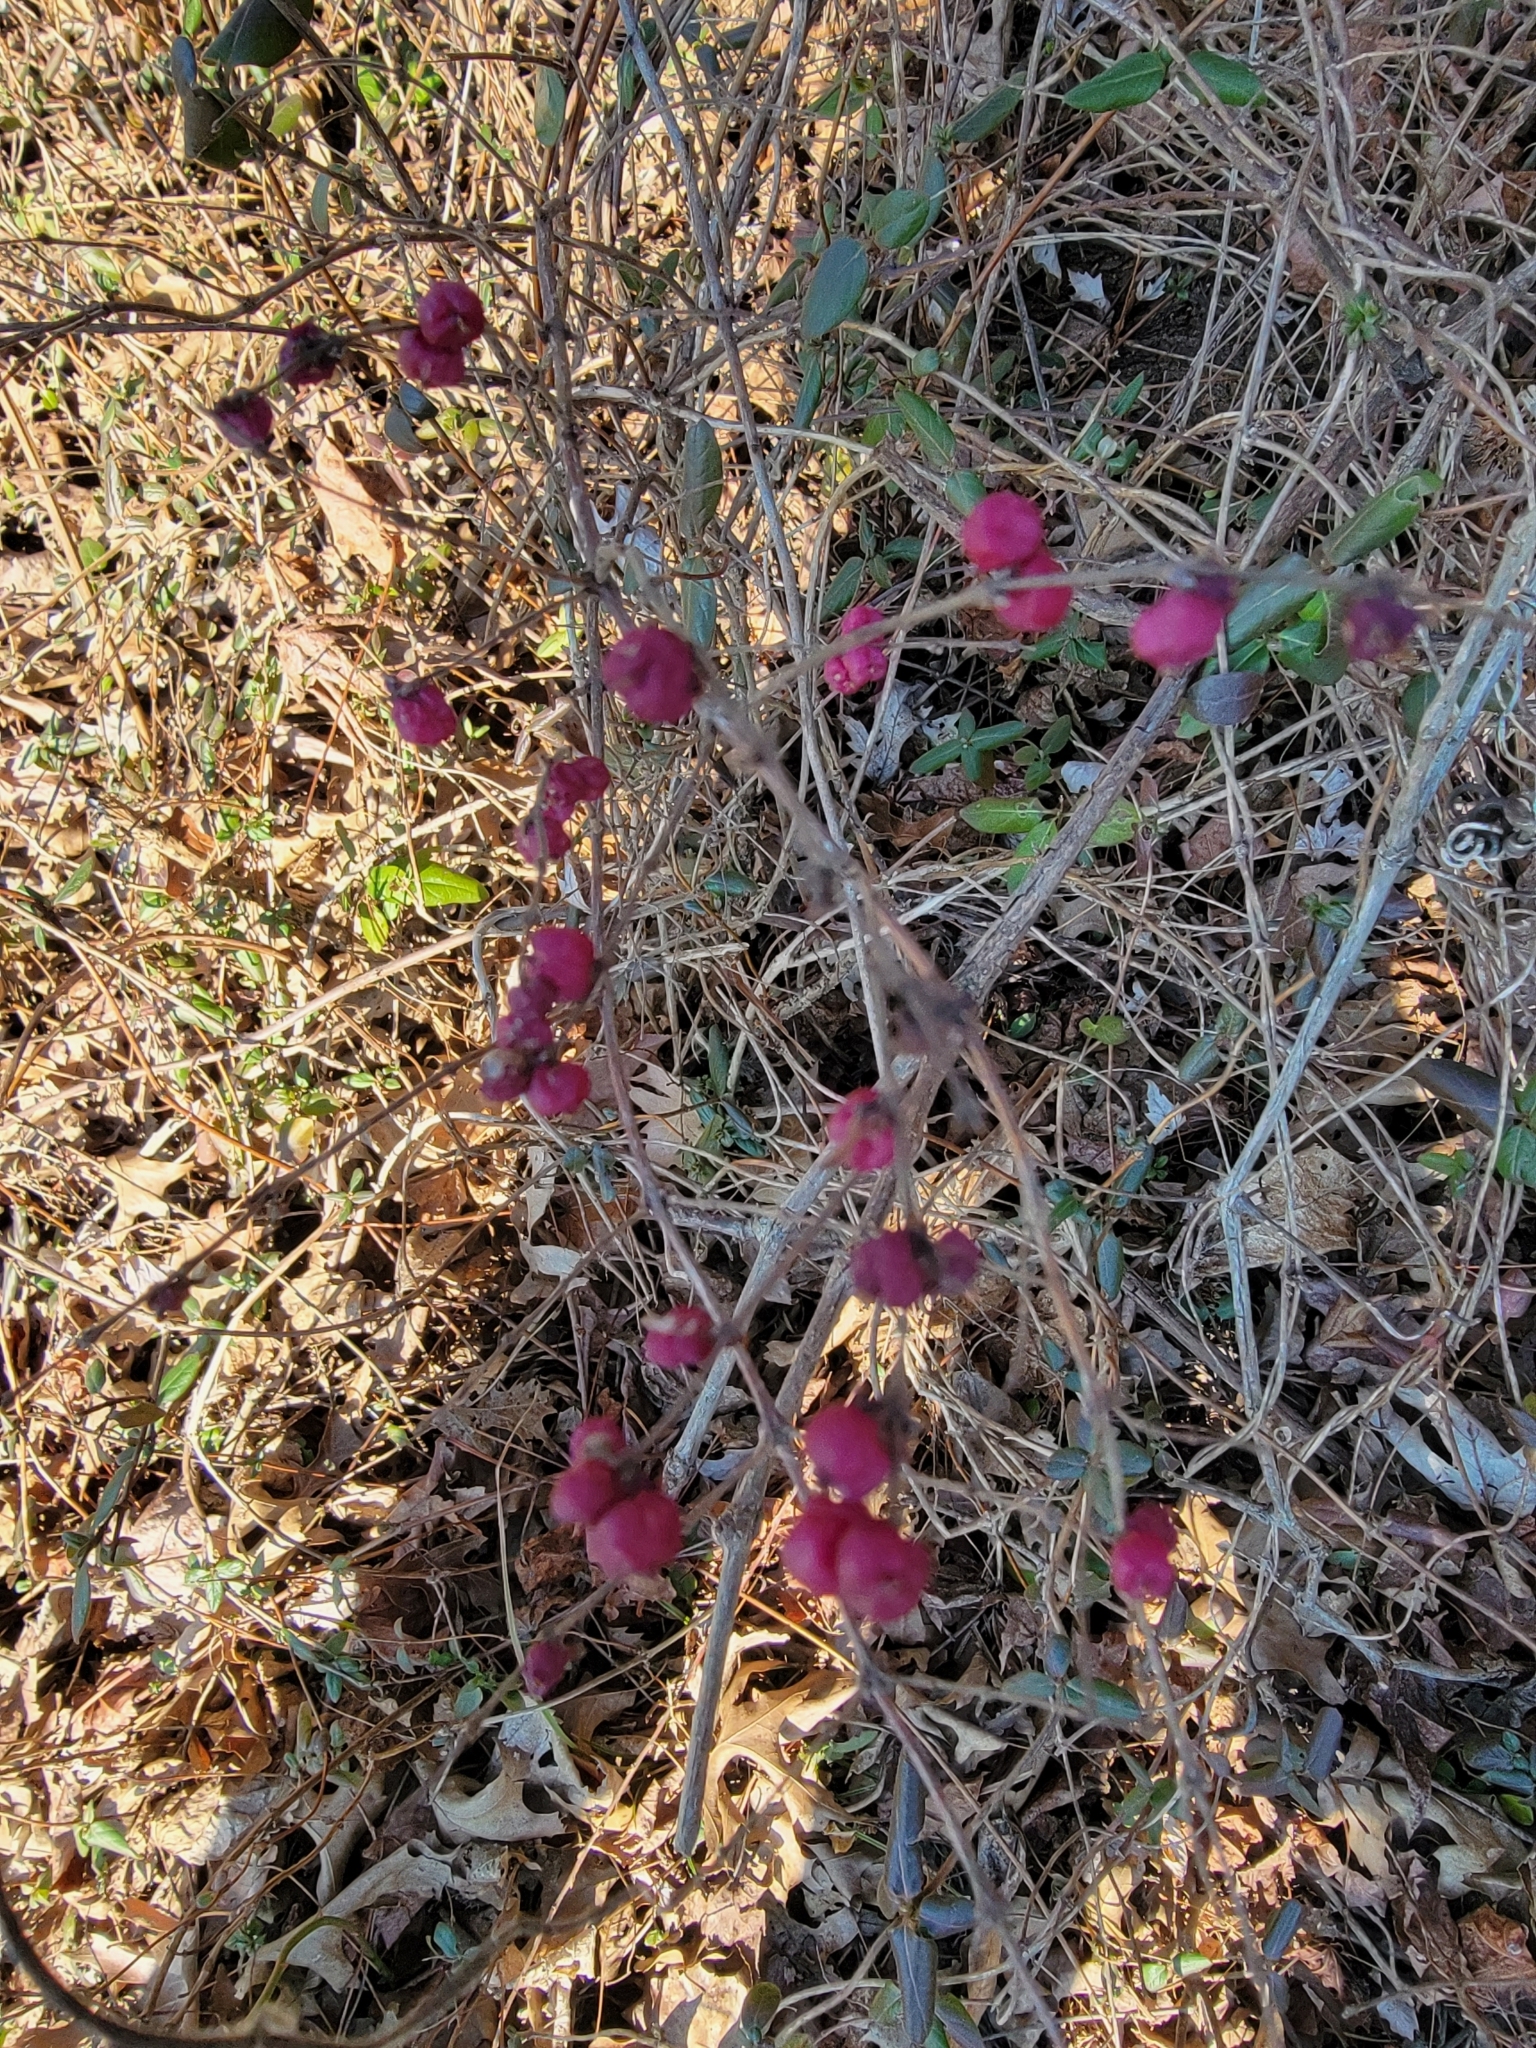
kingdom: Plantae
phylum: Tracheophyta
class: Magnoliopsida
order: Dipsacales
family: Caprifoliaceae
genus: Symphoricarpos
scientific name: Symphoricarpos orbiculatus
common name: Coralberry
